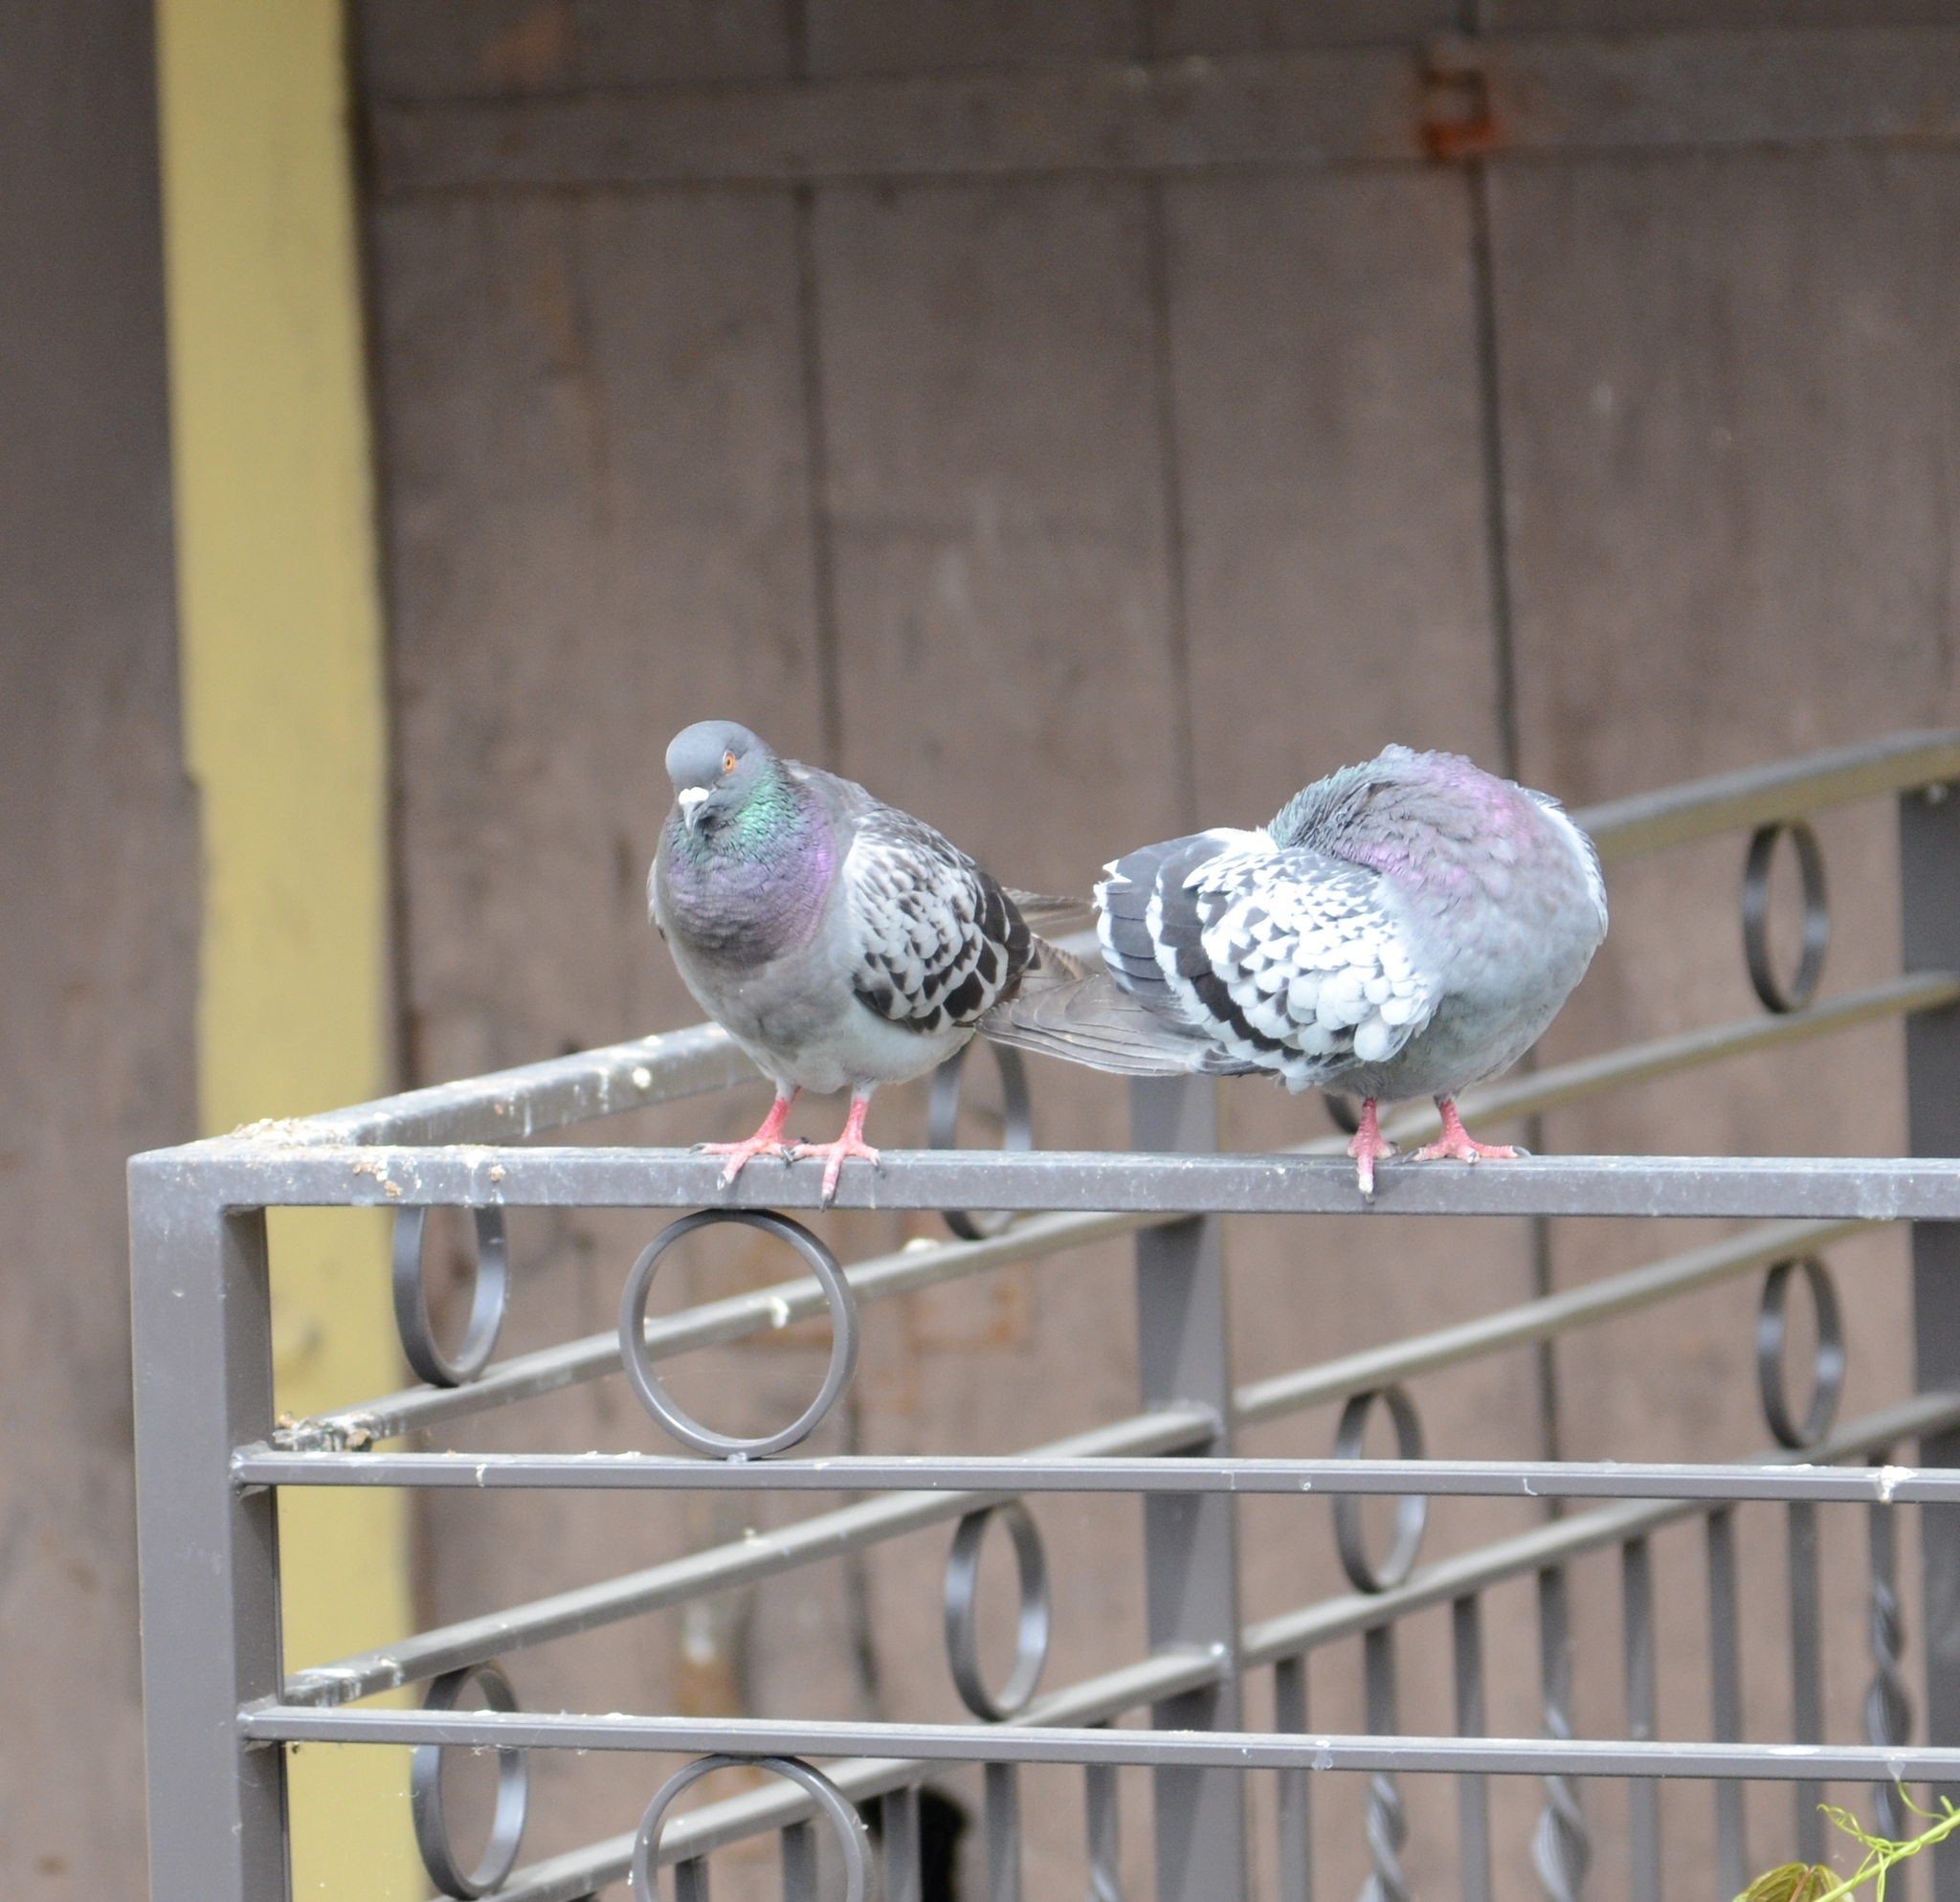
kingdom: Animalia
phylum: Chordata
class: Aves
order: Columbiformes
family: Columbidae
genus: Columba
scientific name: Columba livia
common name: Rock pigeon
